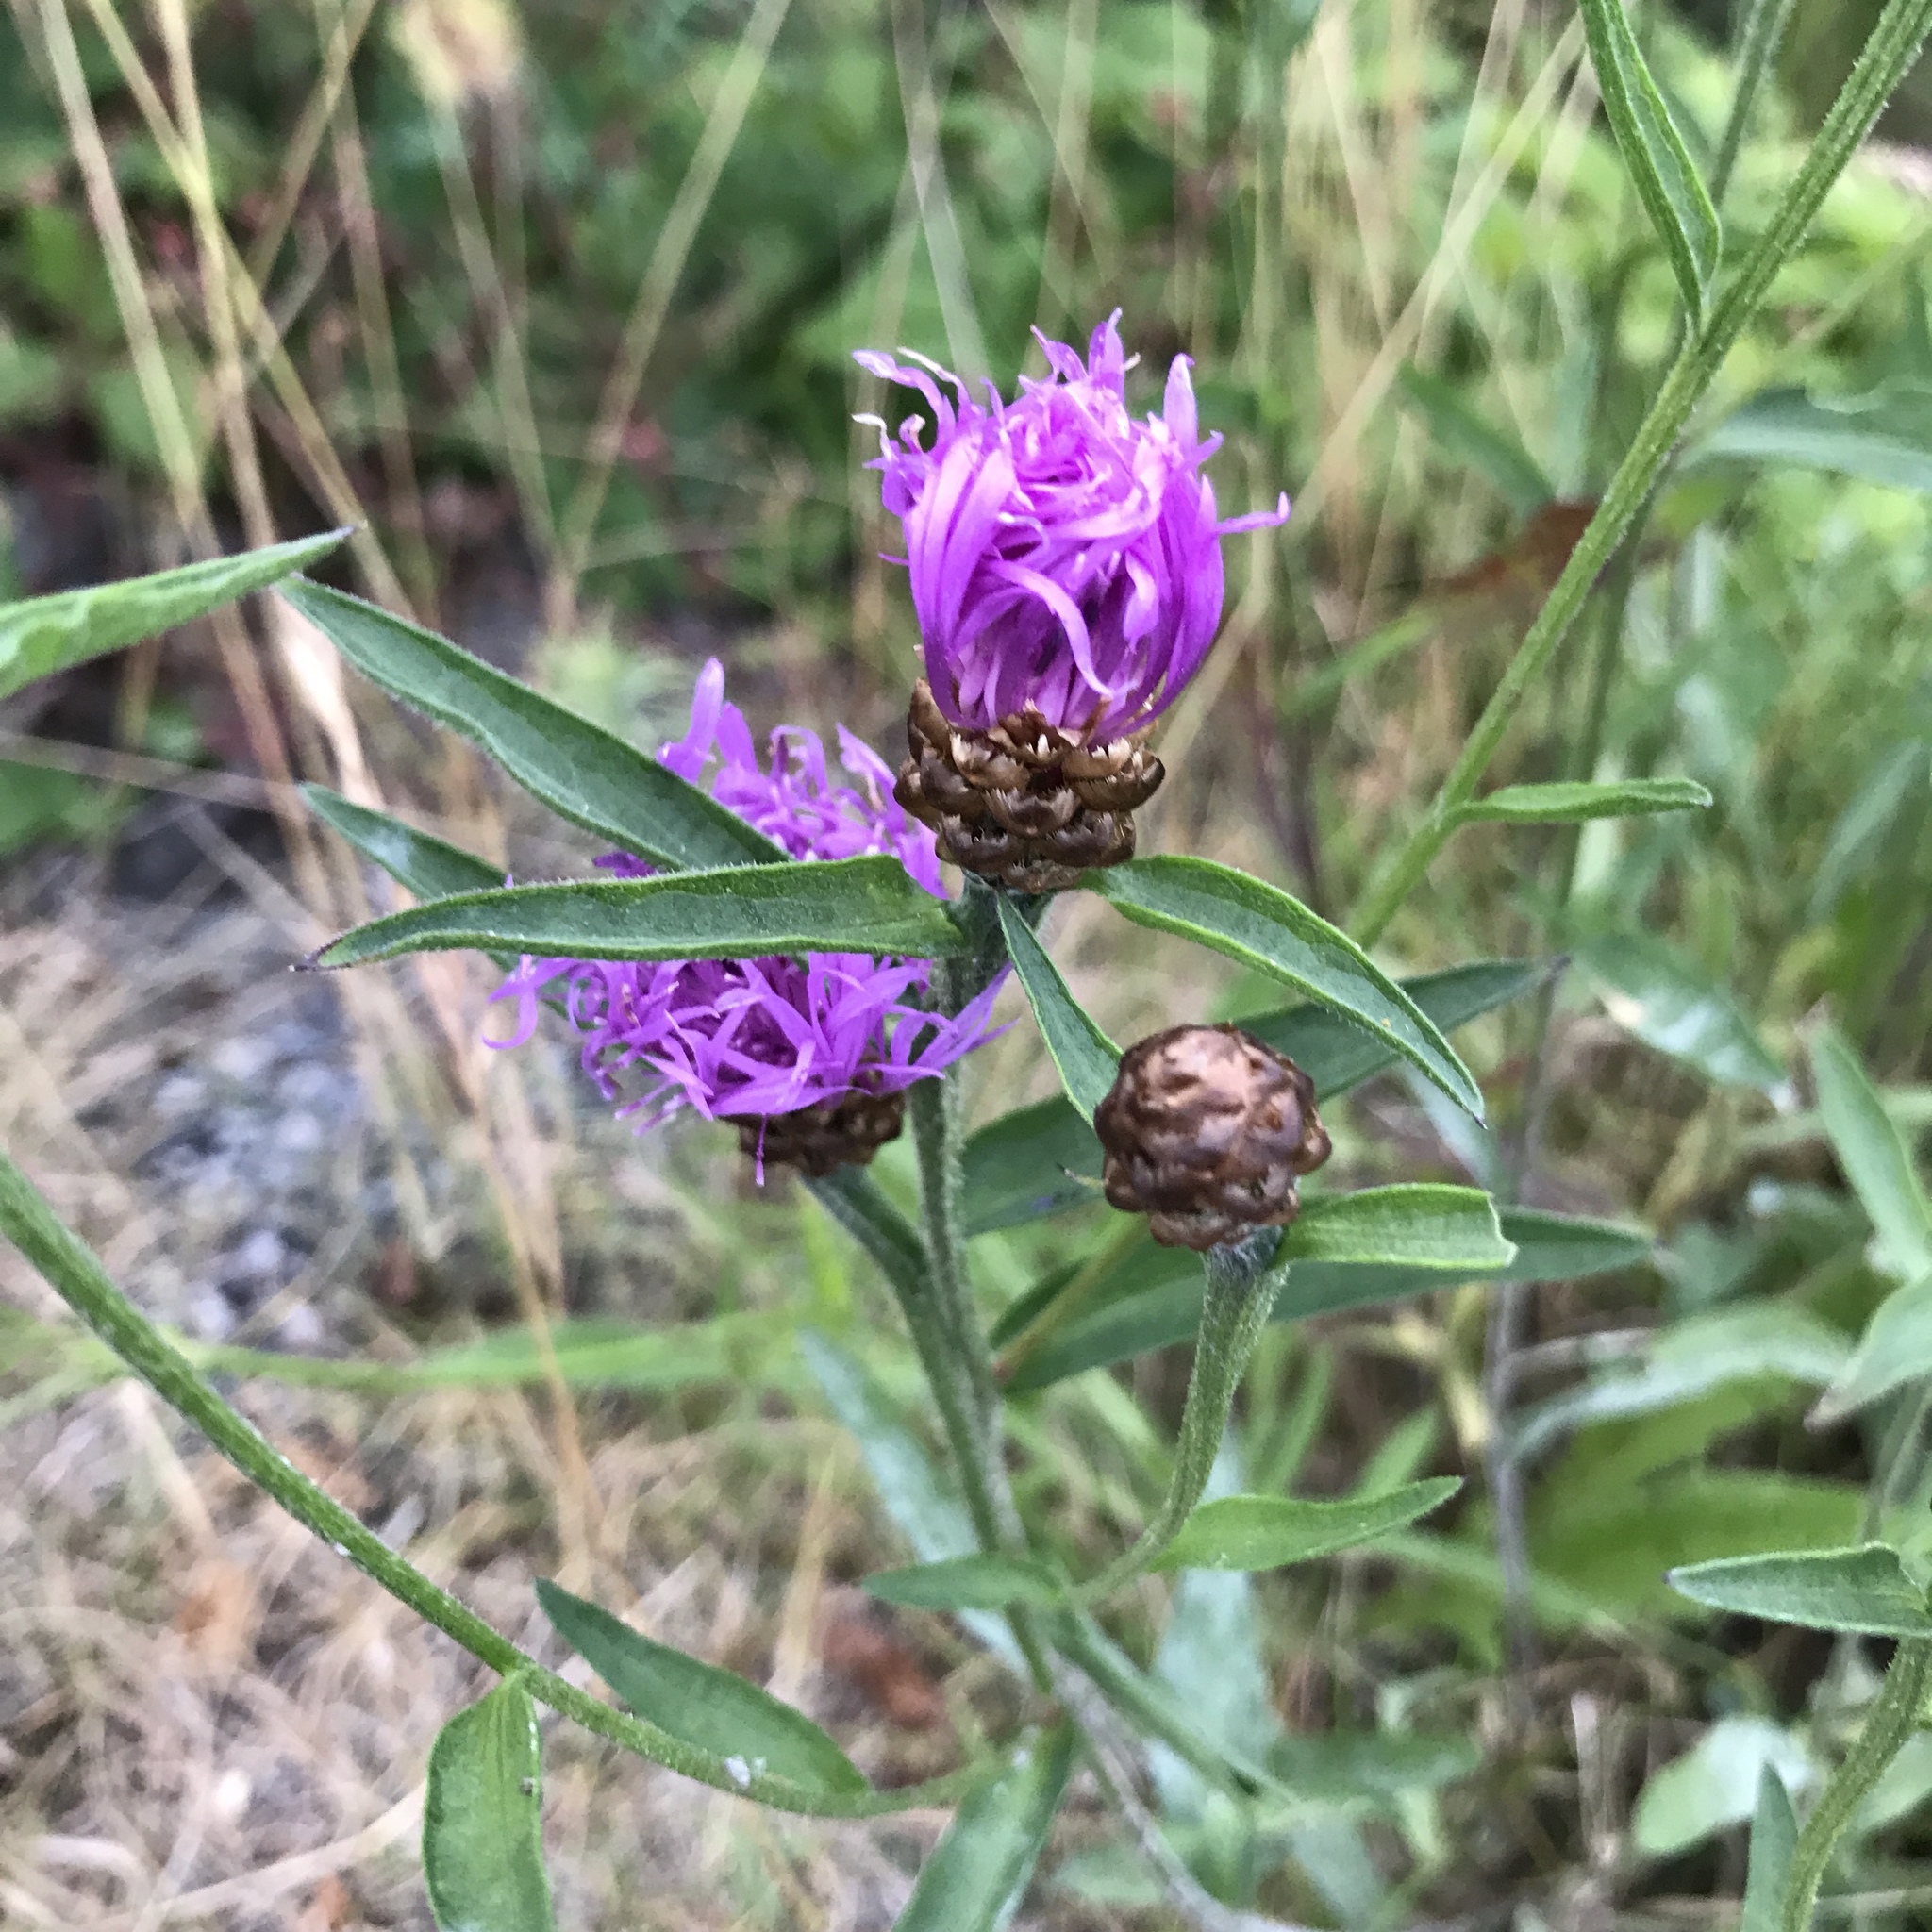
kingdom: Plantae
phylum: Tracheophyta
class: Magnoliopsida
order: Asterales
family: Asteraceae
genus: Centaurea
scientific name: Centaurea jacea
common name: Brown knapweed
